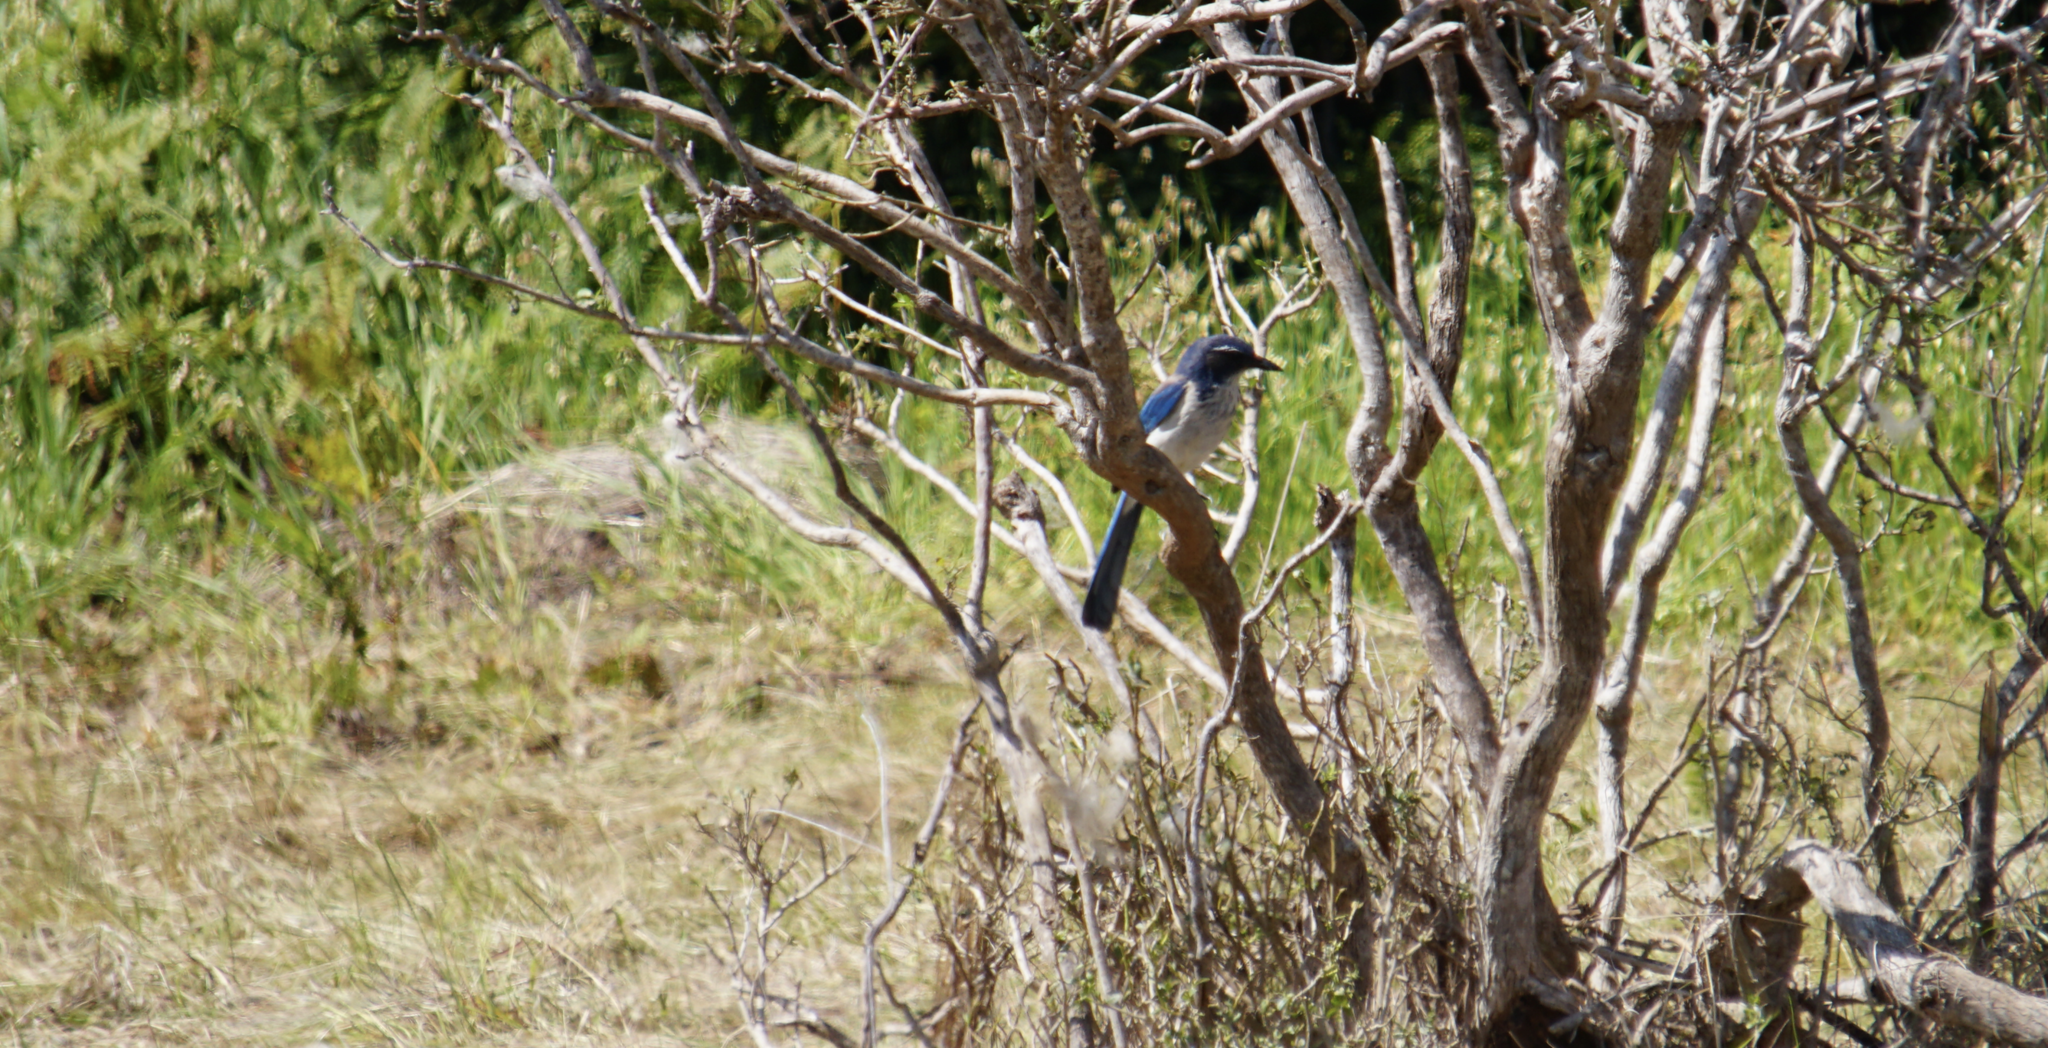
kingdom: Animalia
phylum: Chordata
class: Aves
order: Passeriformes
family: Corvidae
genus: Aphelocoma
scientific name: Aphelocoma californica
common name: California scrub-jay
